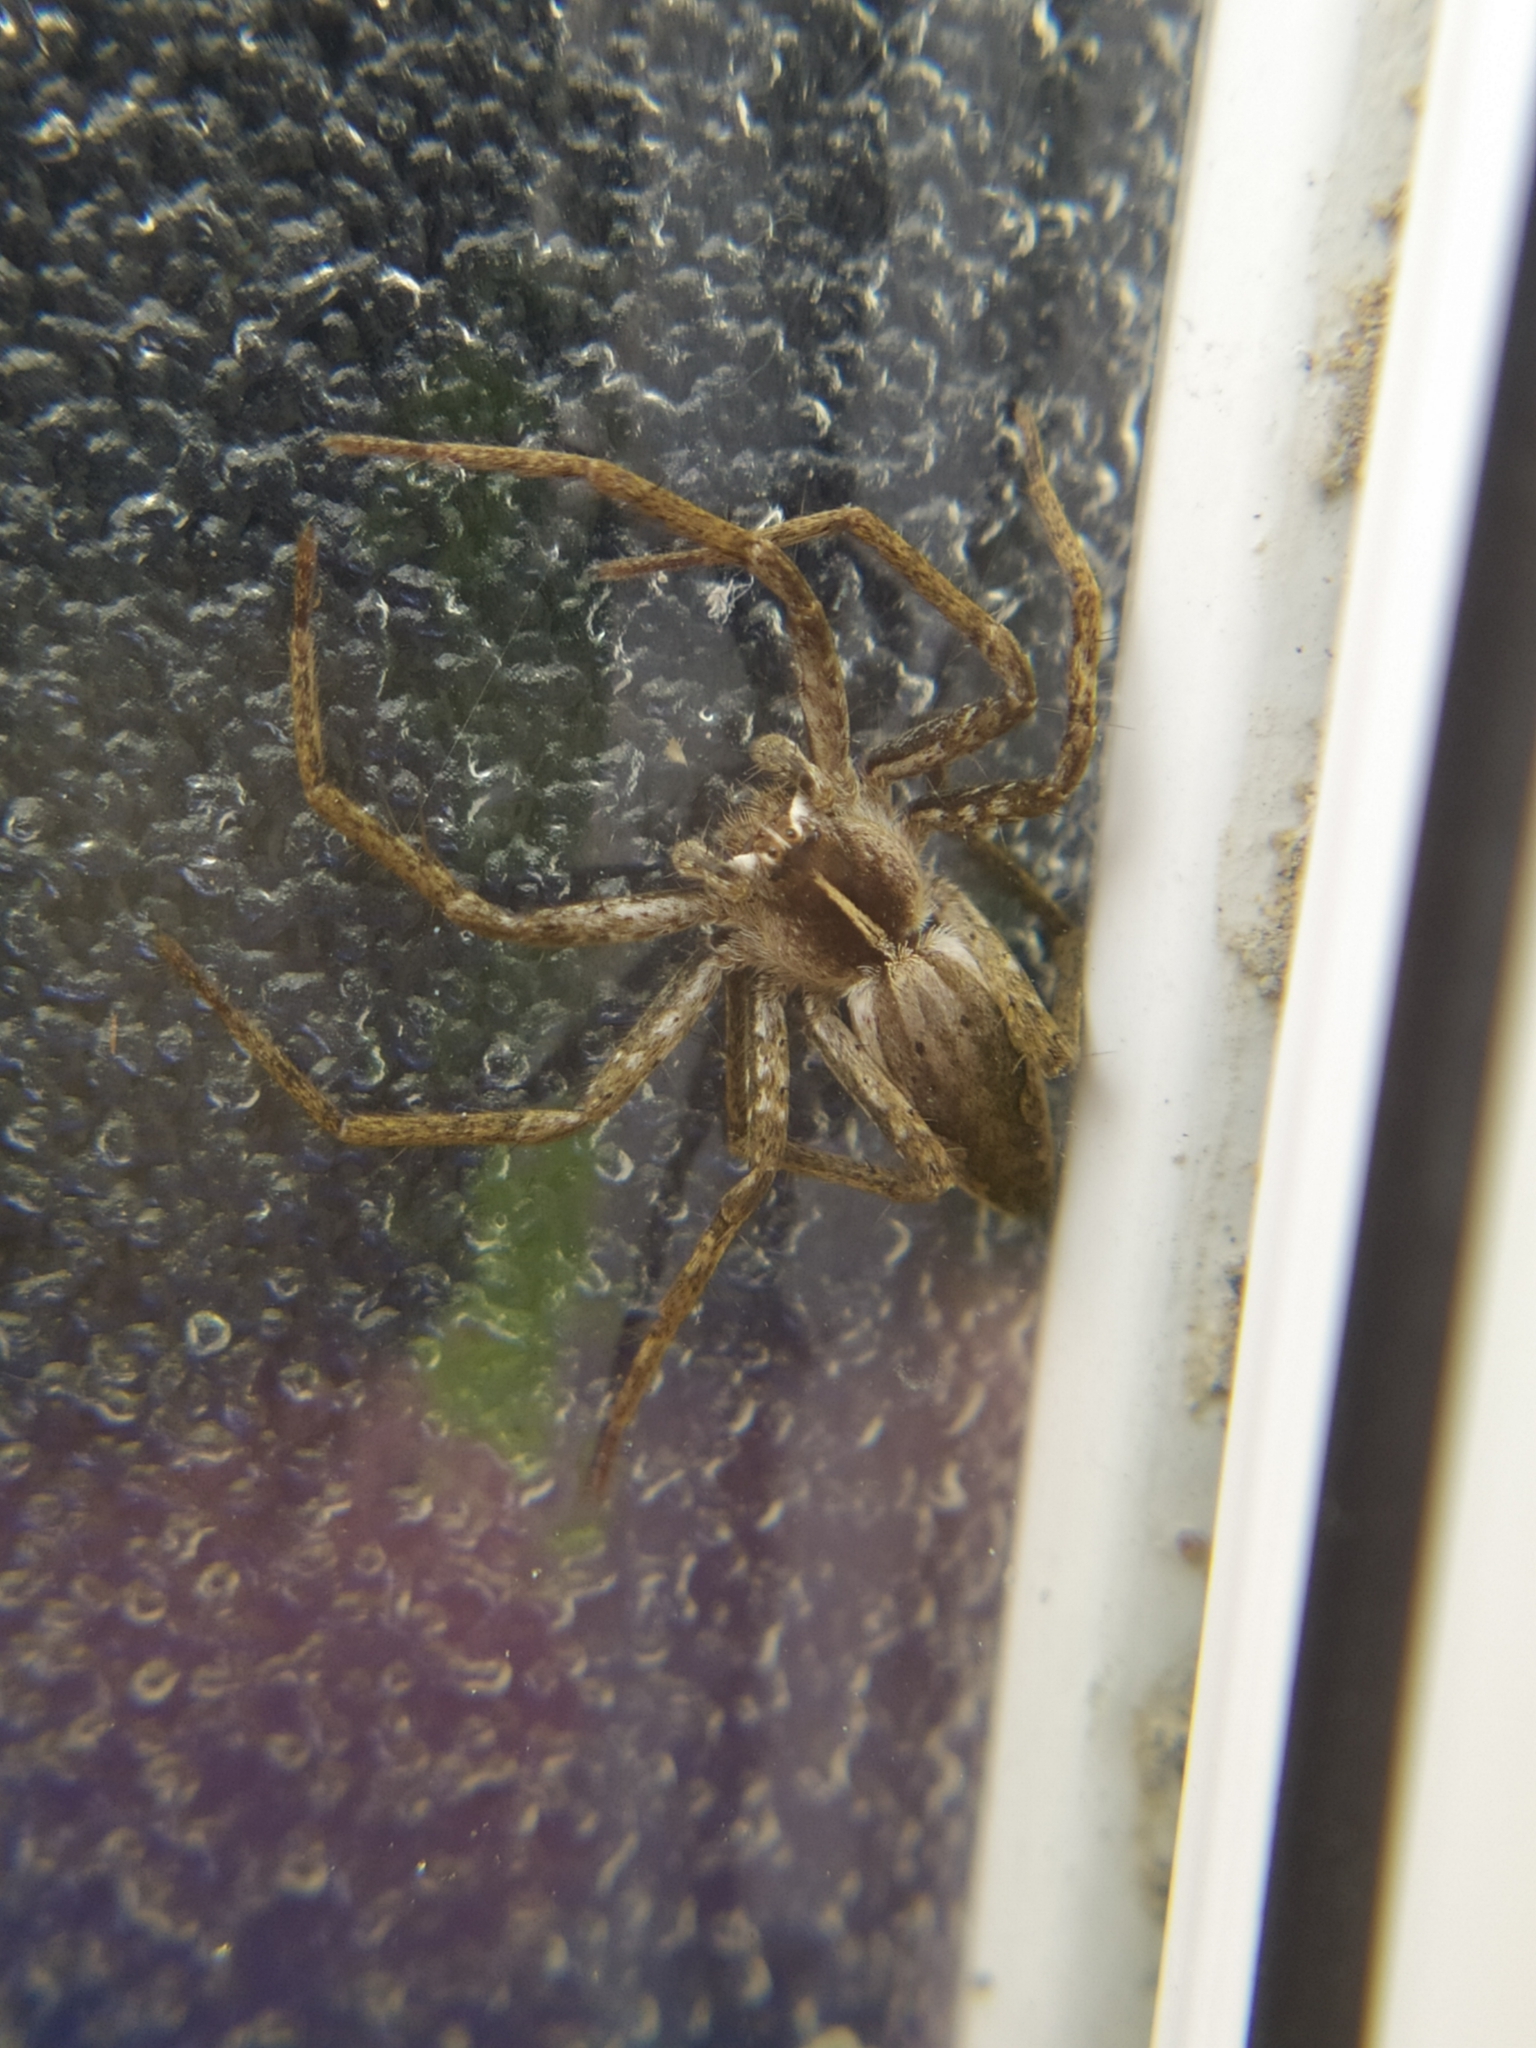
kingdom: Animalia
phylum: Arthropoda
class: Arachnida
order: Araneae
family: Pisauridae
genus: Pisaura
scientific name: Pisaura mirabilis
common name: Tent spider
